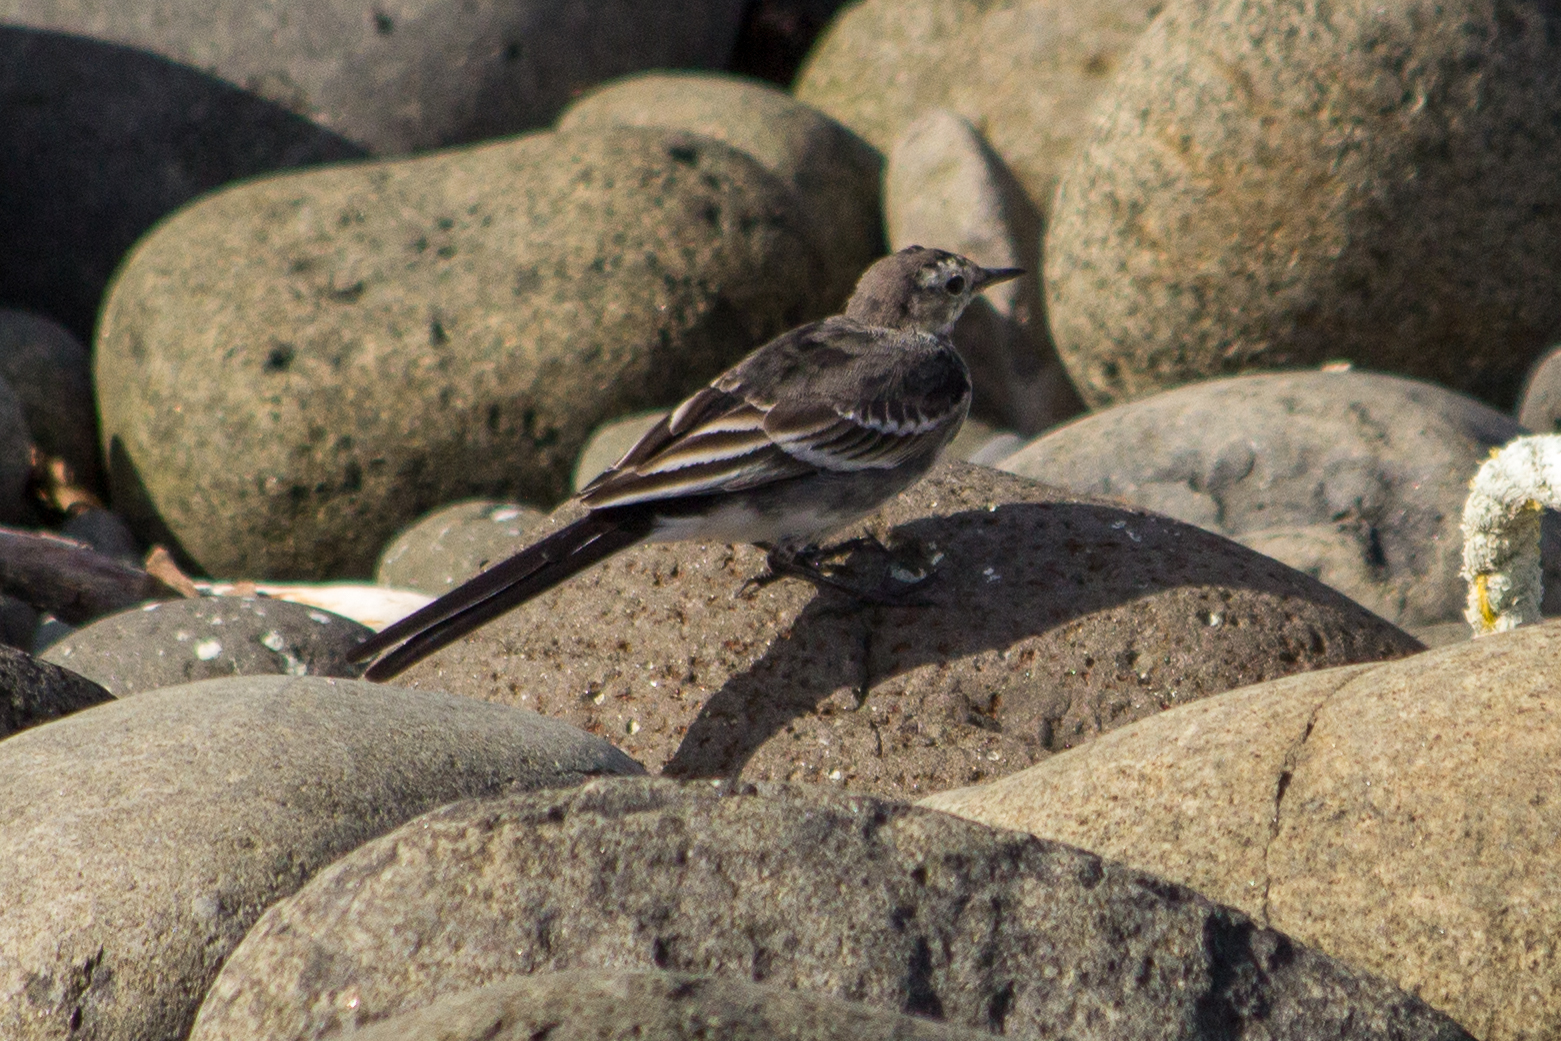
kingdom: Animalia
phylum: Chordata
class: Aves
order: Passeriformes
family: Motacillidae
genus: Motacilla
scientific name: Motacilla alba
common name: White wagtail
